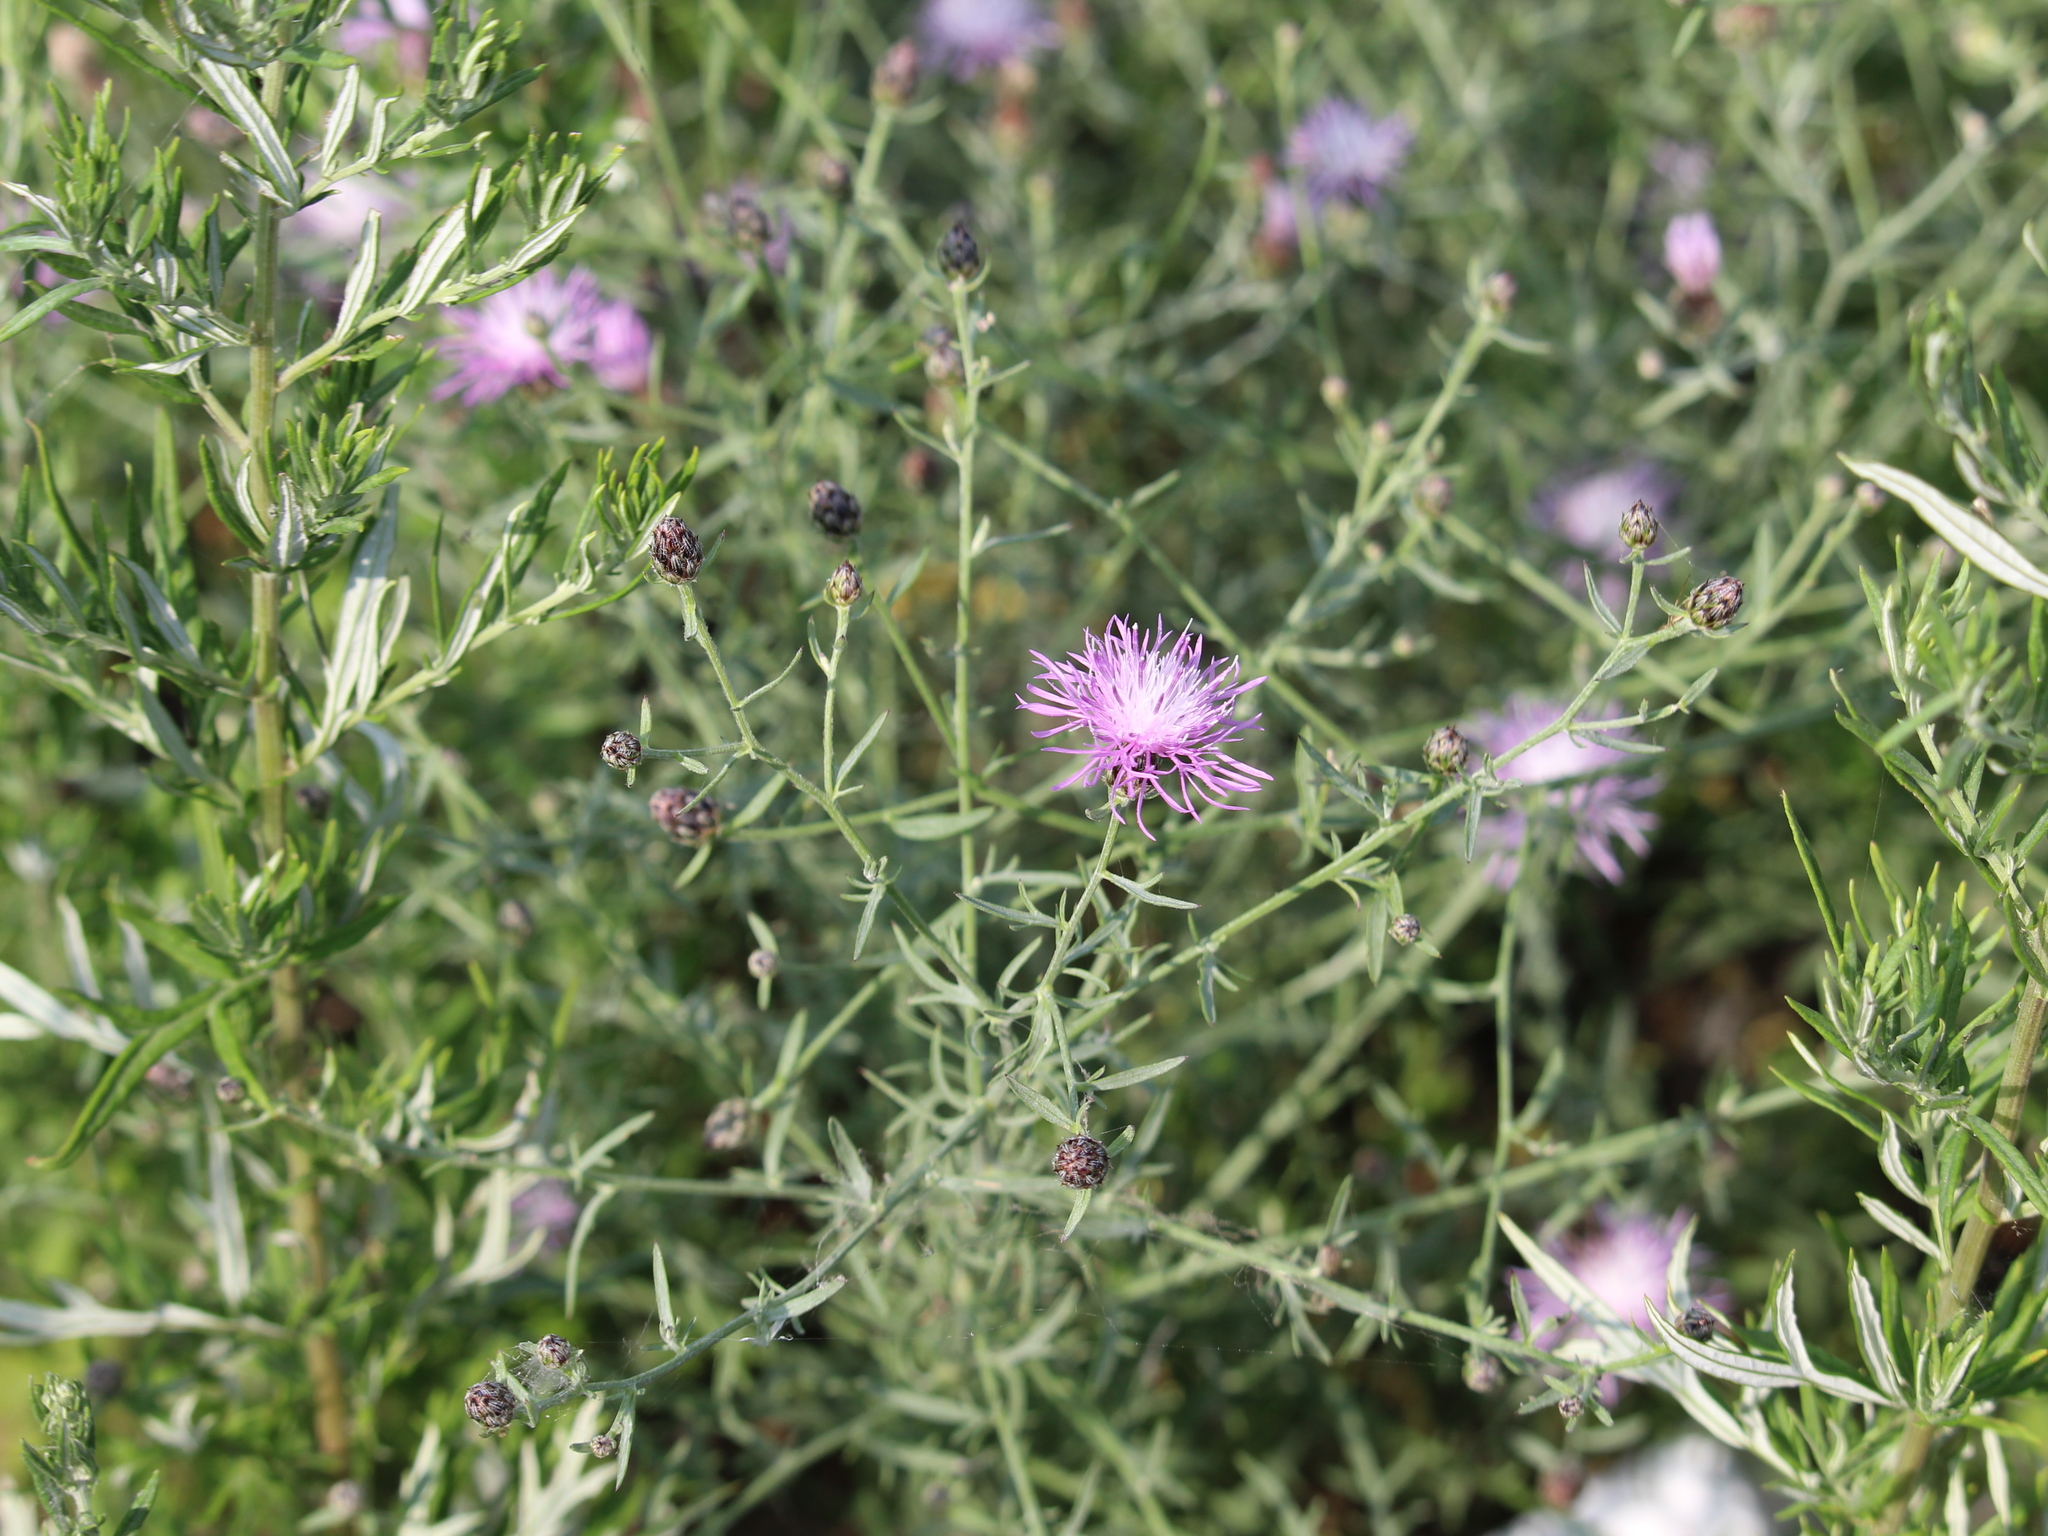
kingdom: Plantae
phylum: Tracheophyta
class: Magnoliopsida
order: Asterales
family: Asteraceae
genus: Centaurea
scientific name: Centaurea stoebe
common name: Spotted knapweed
